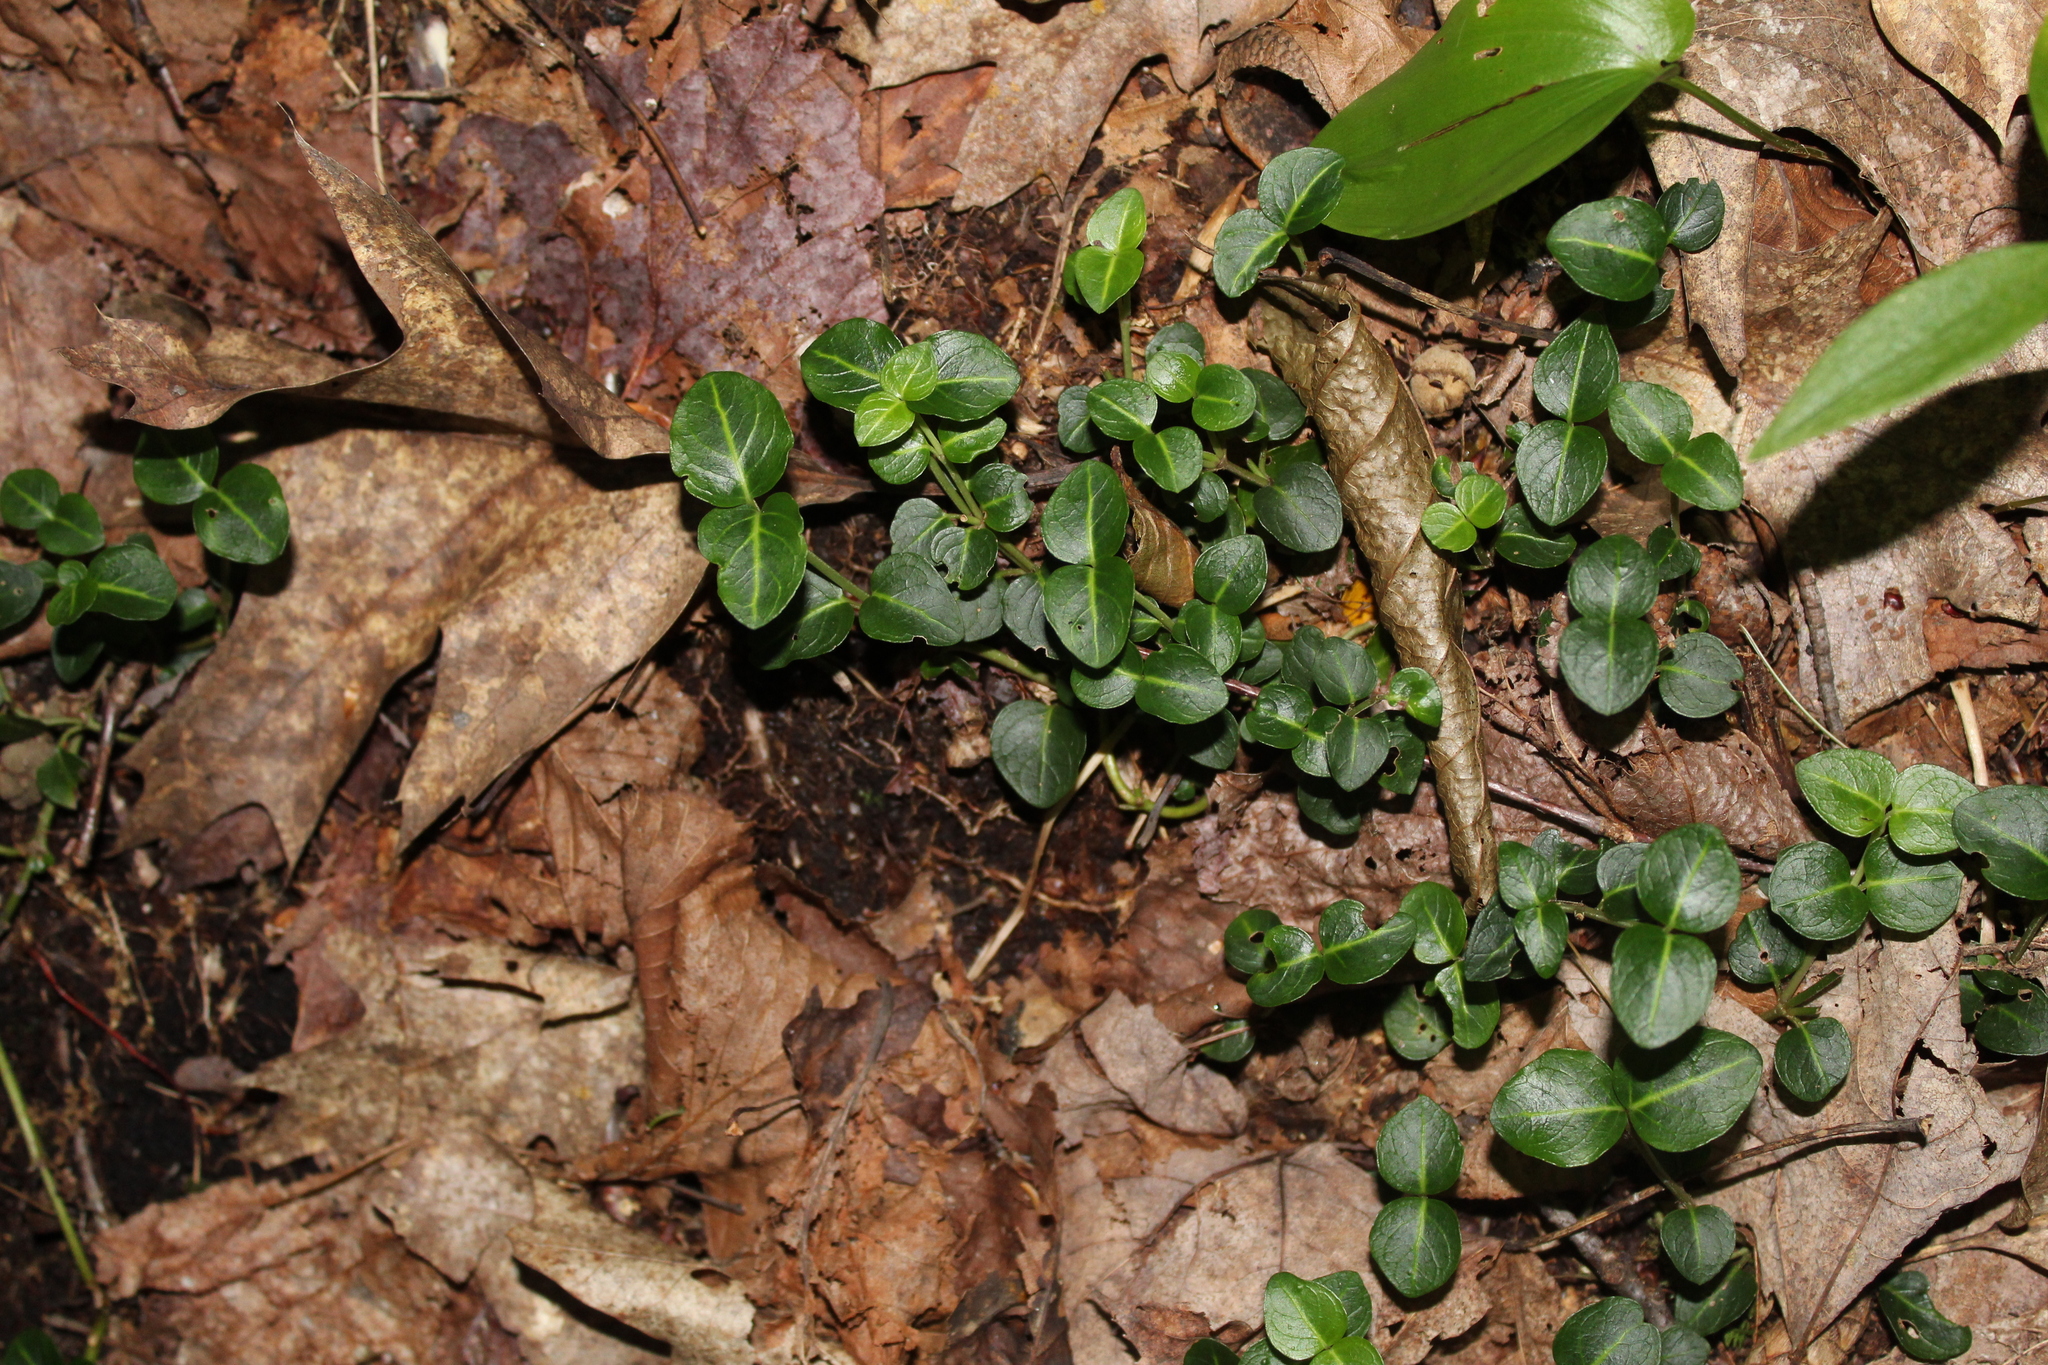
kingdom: Plantae
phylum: Tracheophyta
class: Magnoliopsida
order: Gentianales
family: Rubiaceae
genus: Mitchella
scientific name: Mitchella repens
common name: Partridge-berry
